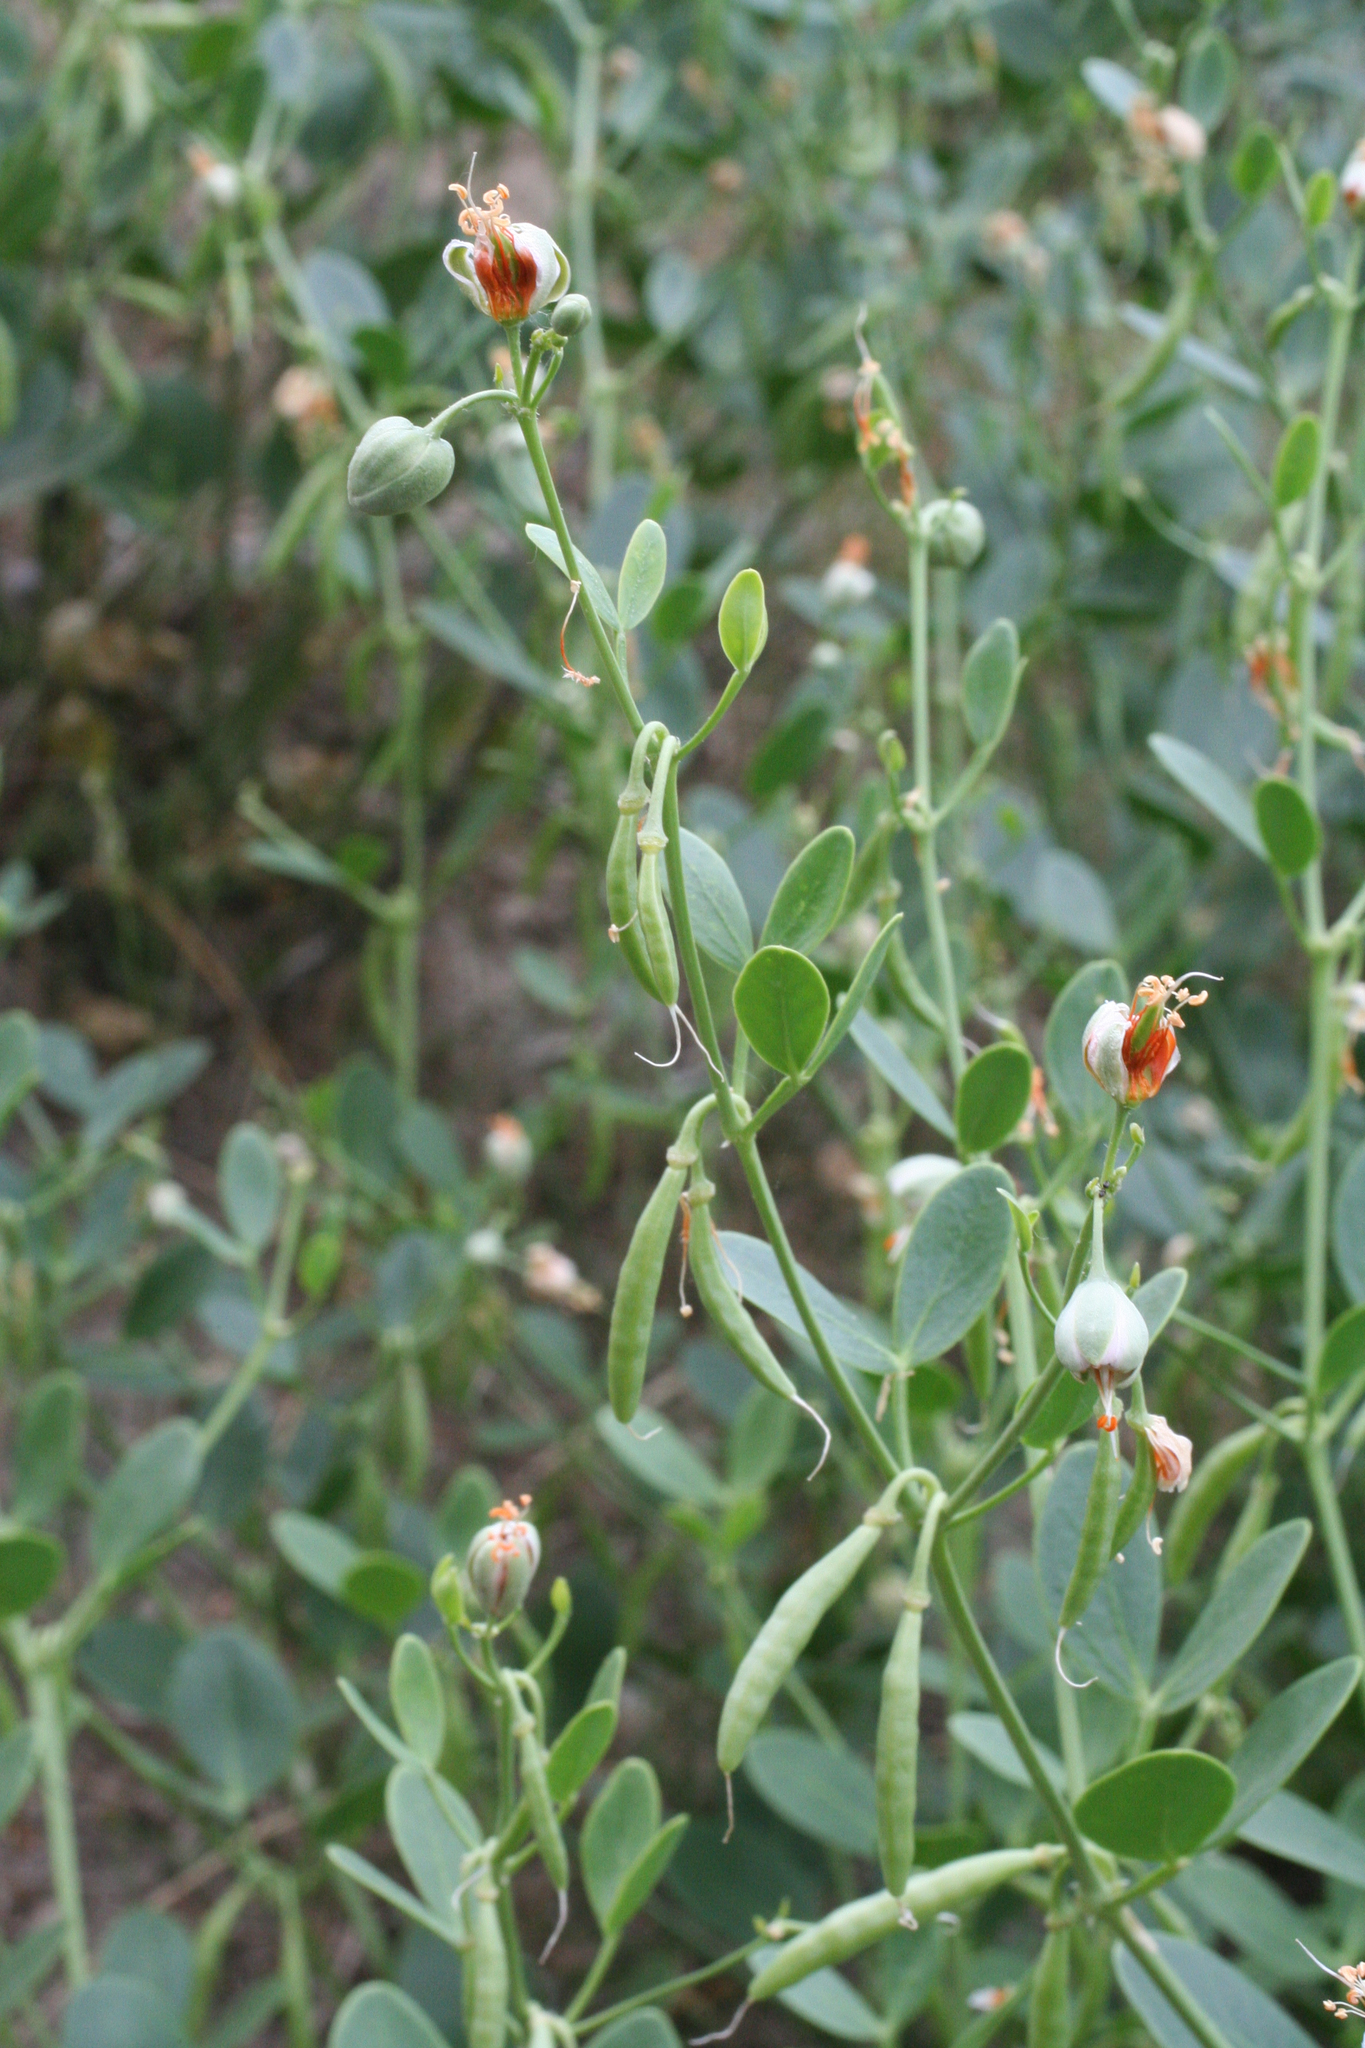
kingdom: Plantae
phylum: Tracheophyta
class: Magnoliopsida
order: Zygophyllales
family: Zygophyllaceae
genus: Zygophyllum
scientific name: Zygophyllum fabago
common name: Syrian beancaper
